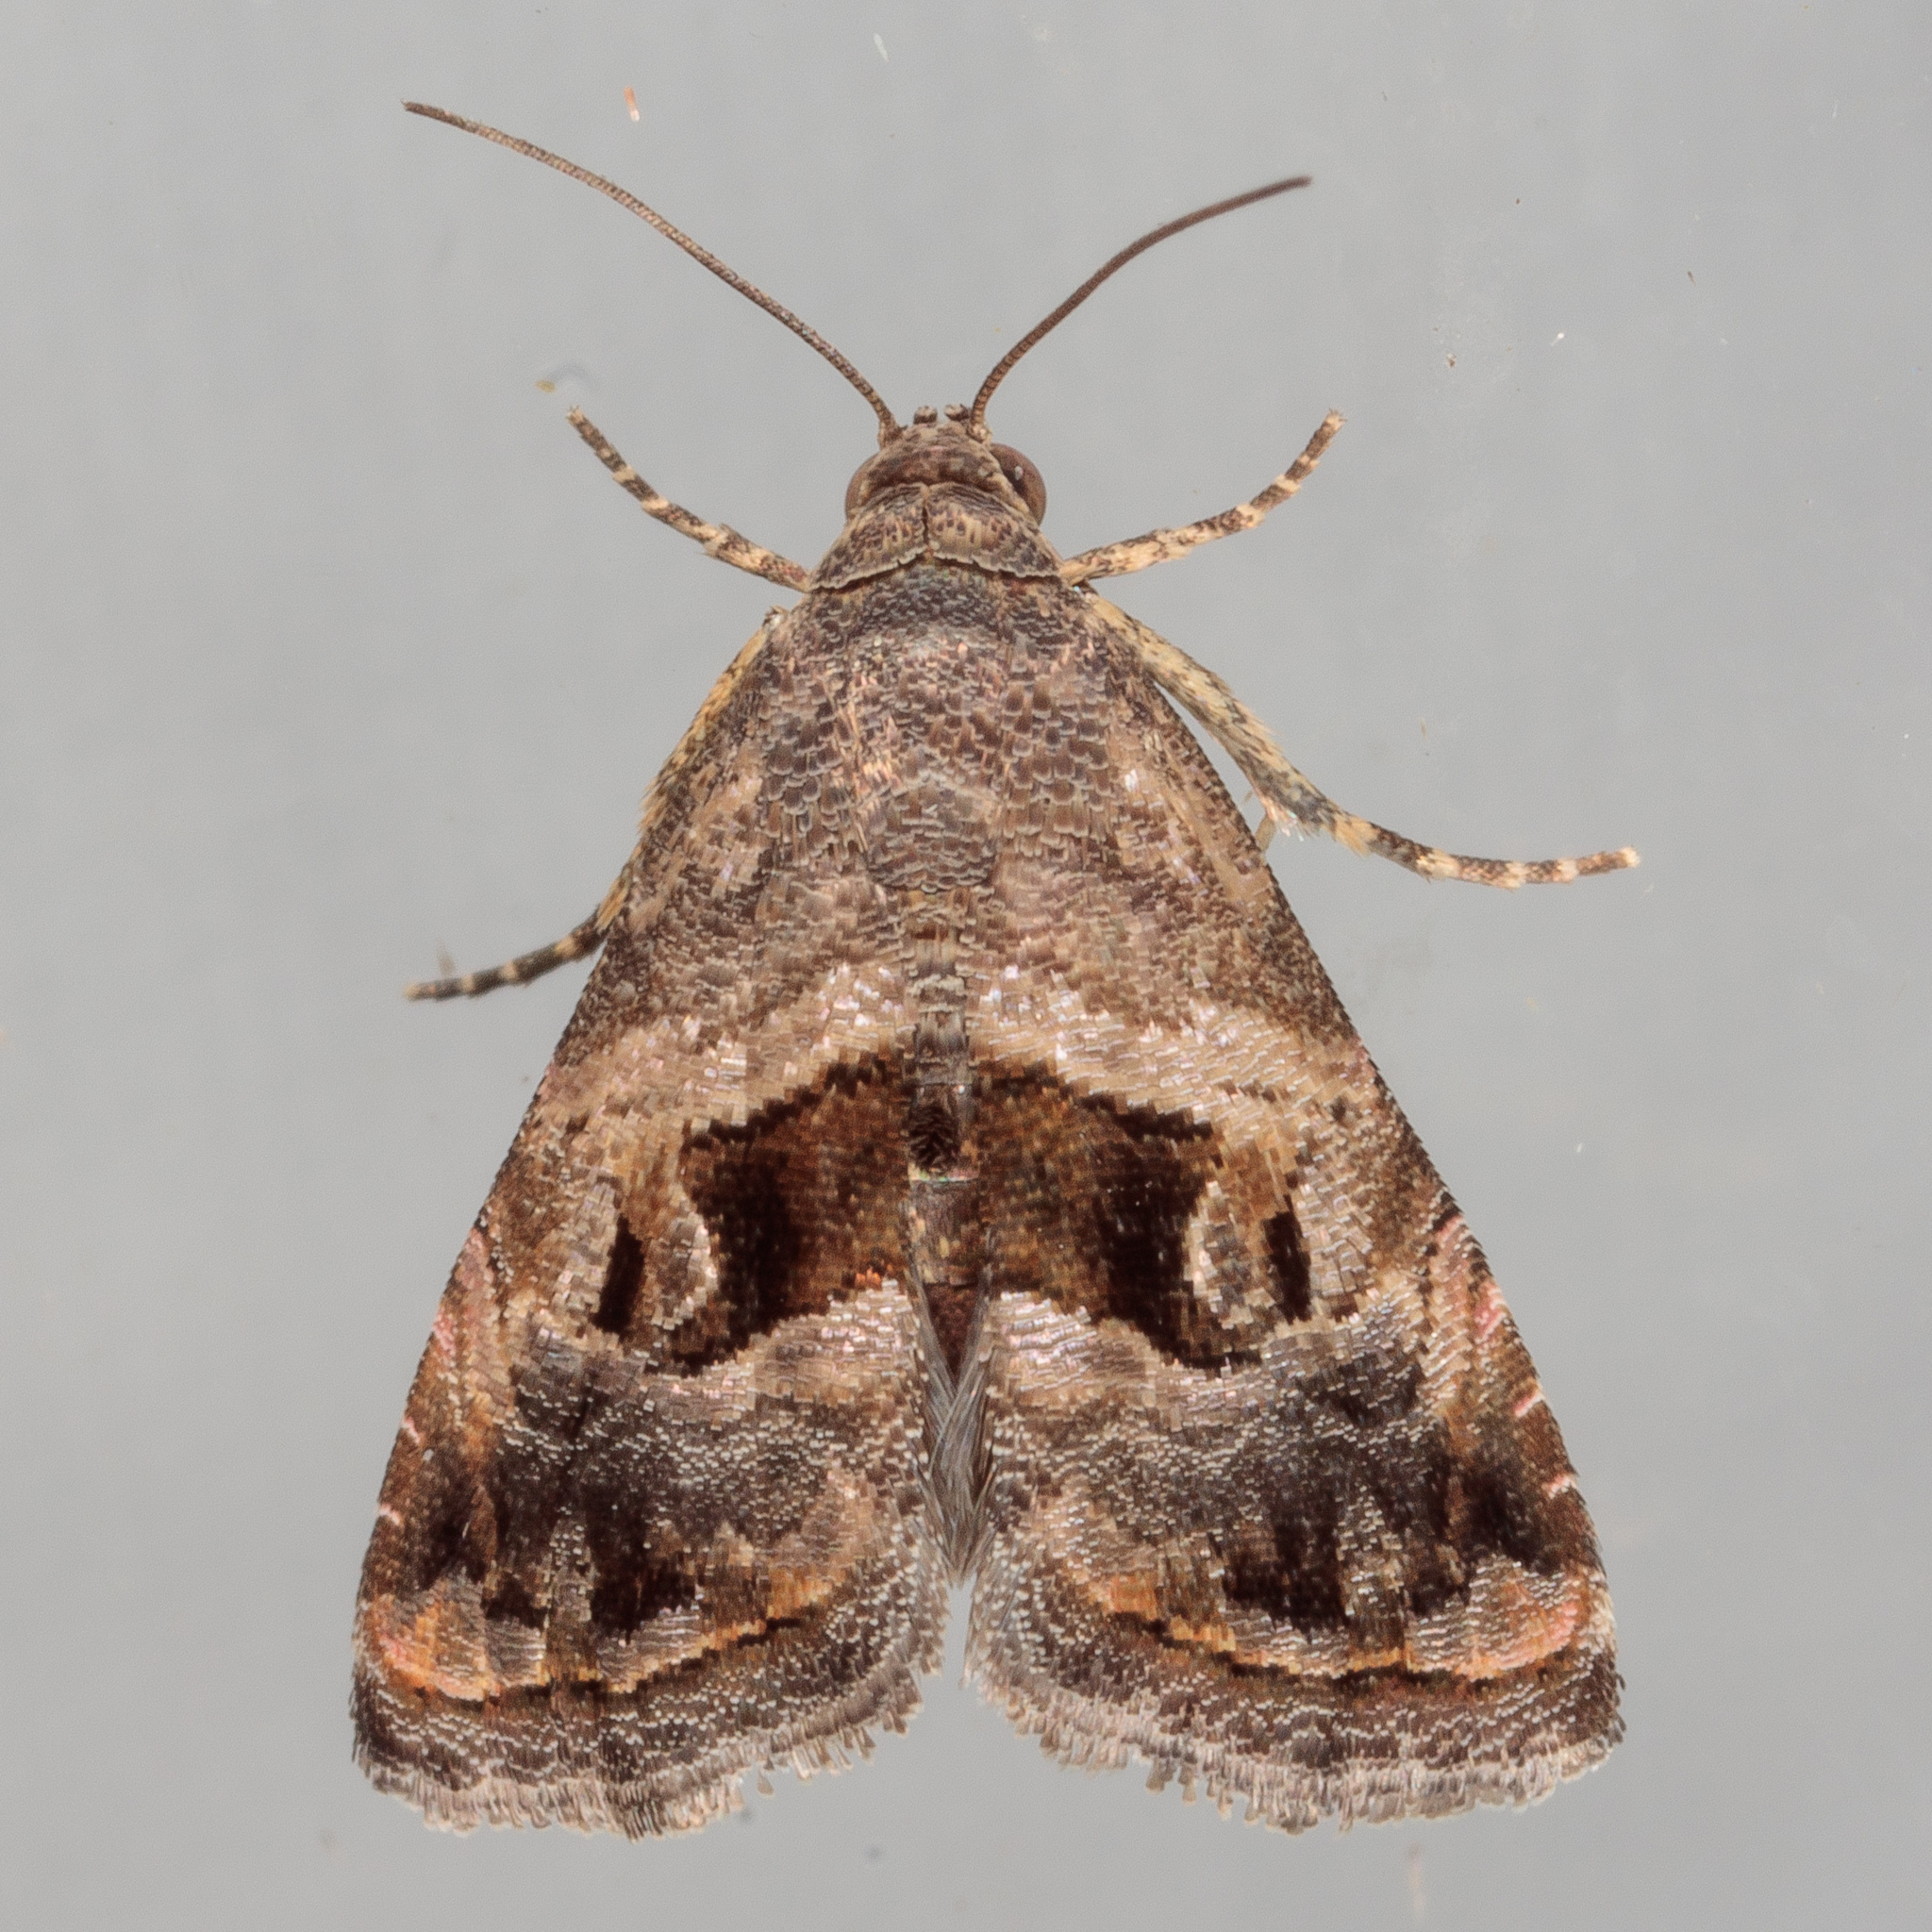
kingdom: Animalia
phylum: Arthropoda
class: Insecta
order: Lepidoptera
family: Noctuidae
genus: Tripudia
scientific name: Tripudia quadrifera
